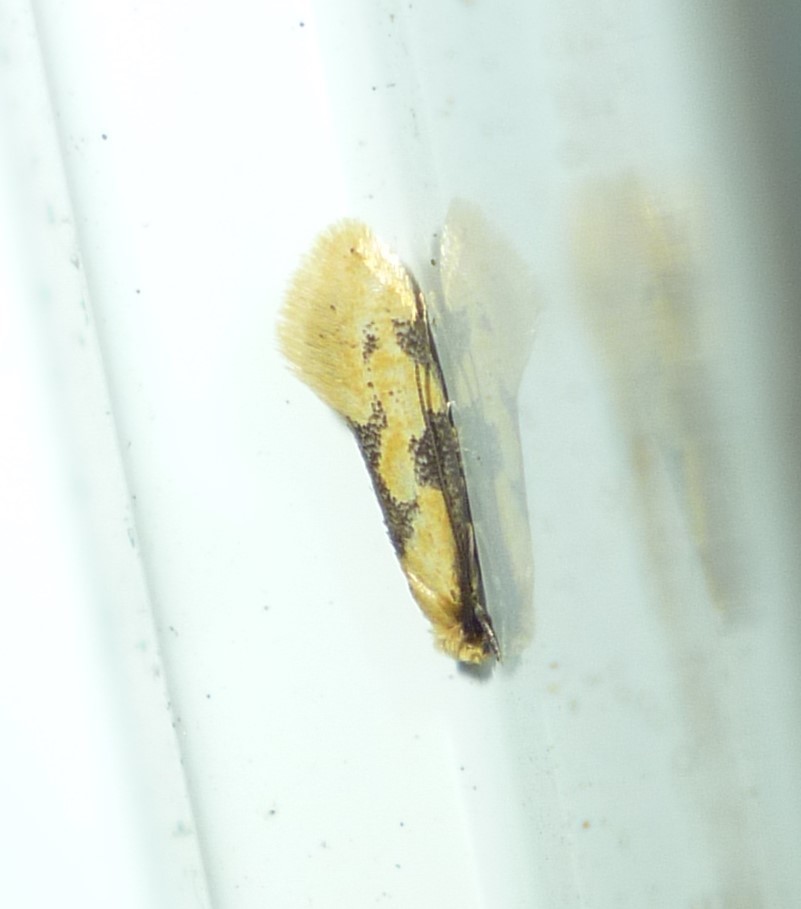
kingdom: Animalia
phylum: Arthropoda
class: Insecta
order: Lepidoptera
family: Meessiidae
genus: Hybroma
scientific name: Hybroma servulella
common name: Yellow wave moth
